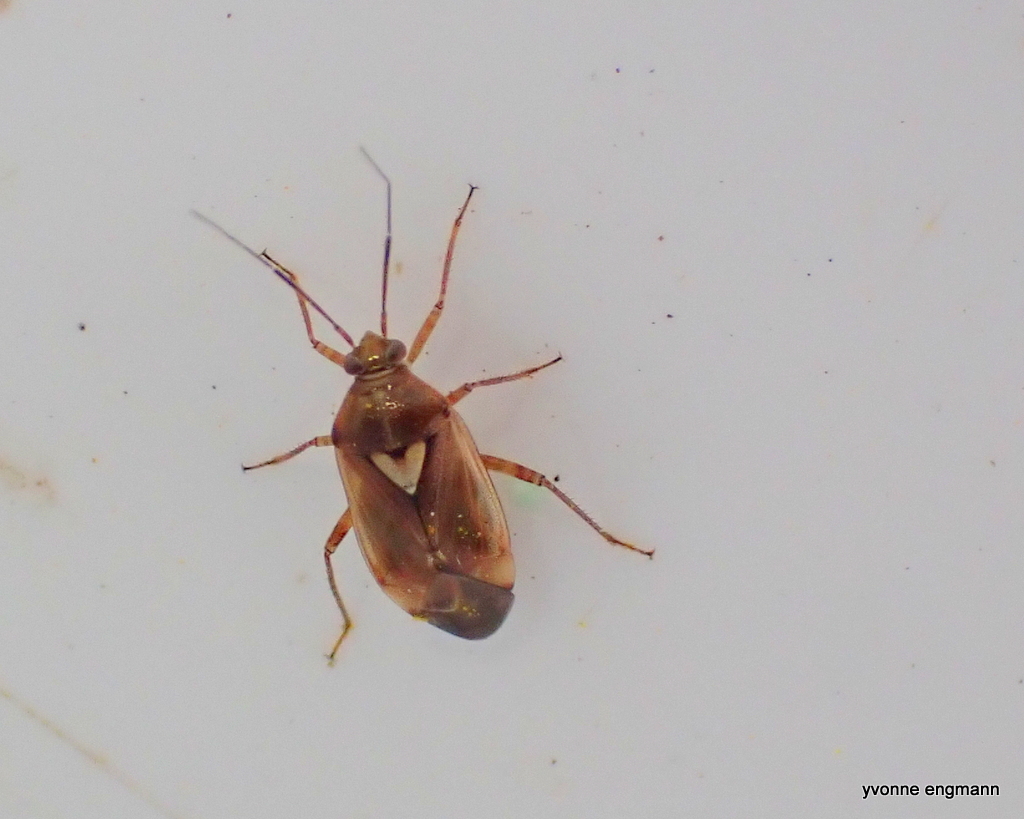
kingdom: Animalia
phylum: Arthropoda
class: Insecta
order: Hemiptera
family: Miridae
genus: Lygus
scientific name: Lygus pratensis
